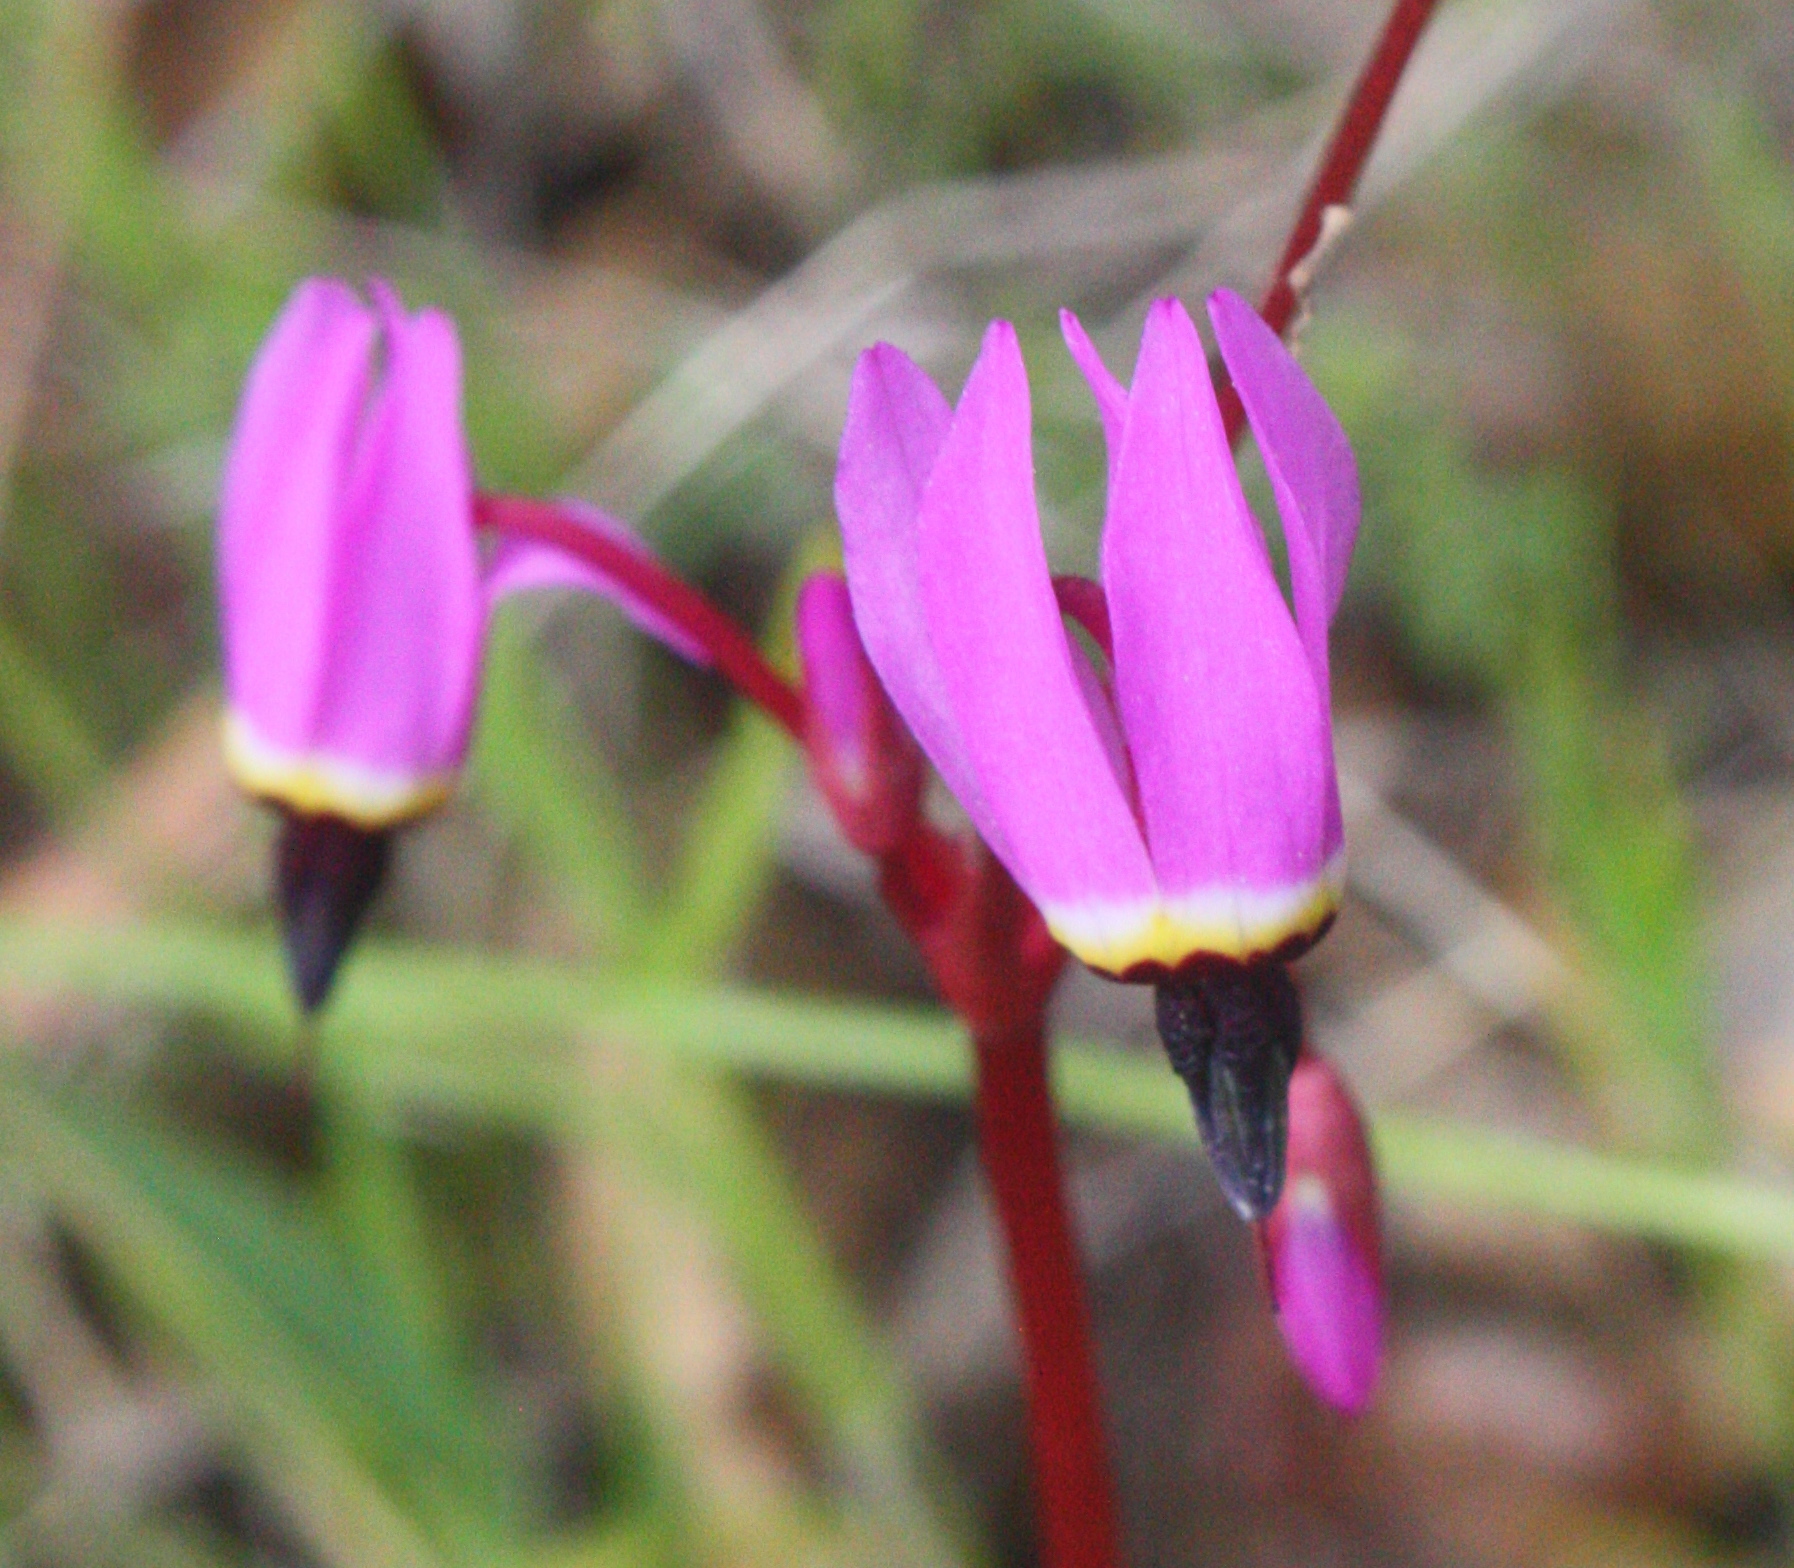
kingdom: Plantae
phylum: Tracheophyta
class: Magnoliopsida
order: Ericales
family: Primulaceae
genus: Dodecatheon
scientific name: Dodecatheon hendersonii
